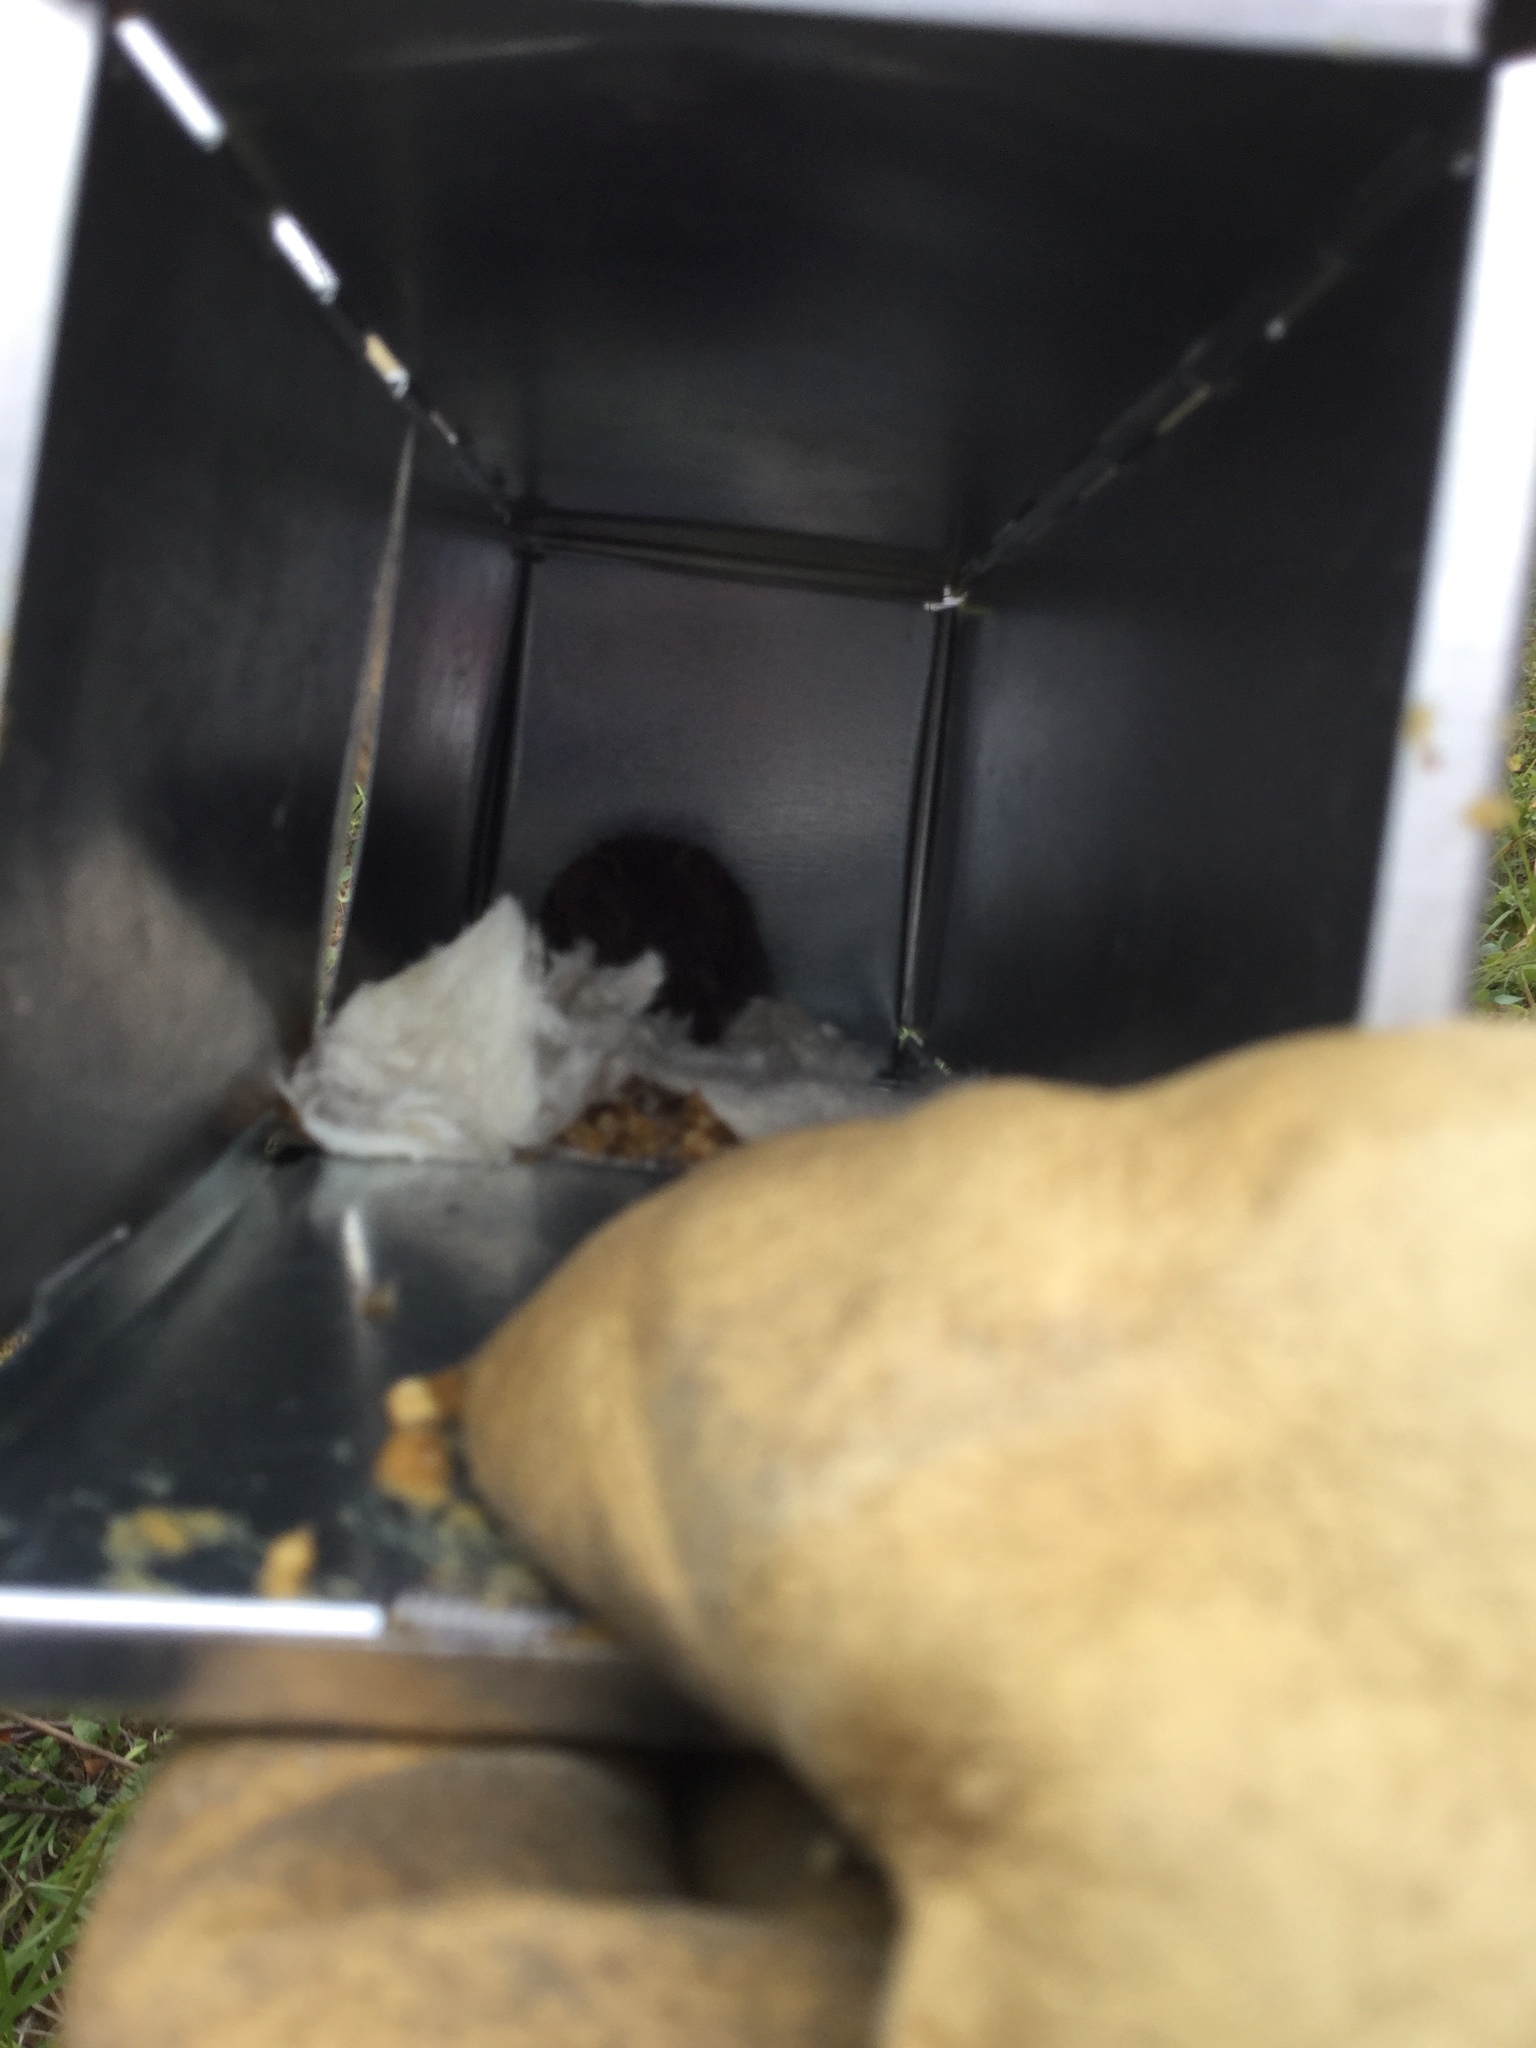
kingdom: Animalia
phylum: Chordata
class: Mammalia
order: Rodentia
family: Cricetidae
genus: Myodes
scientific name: Myodes rutilus
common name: Northern red-backed vole
